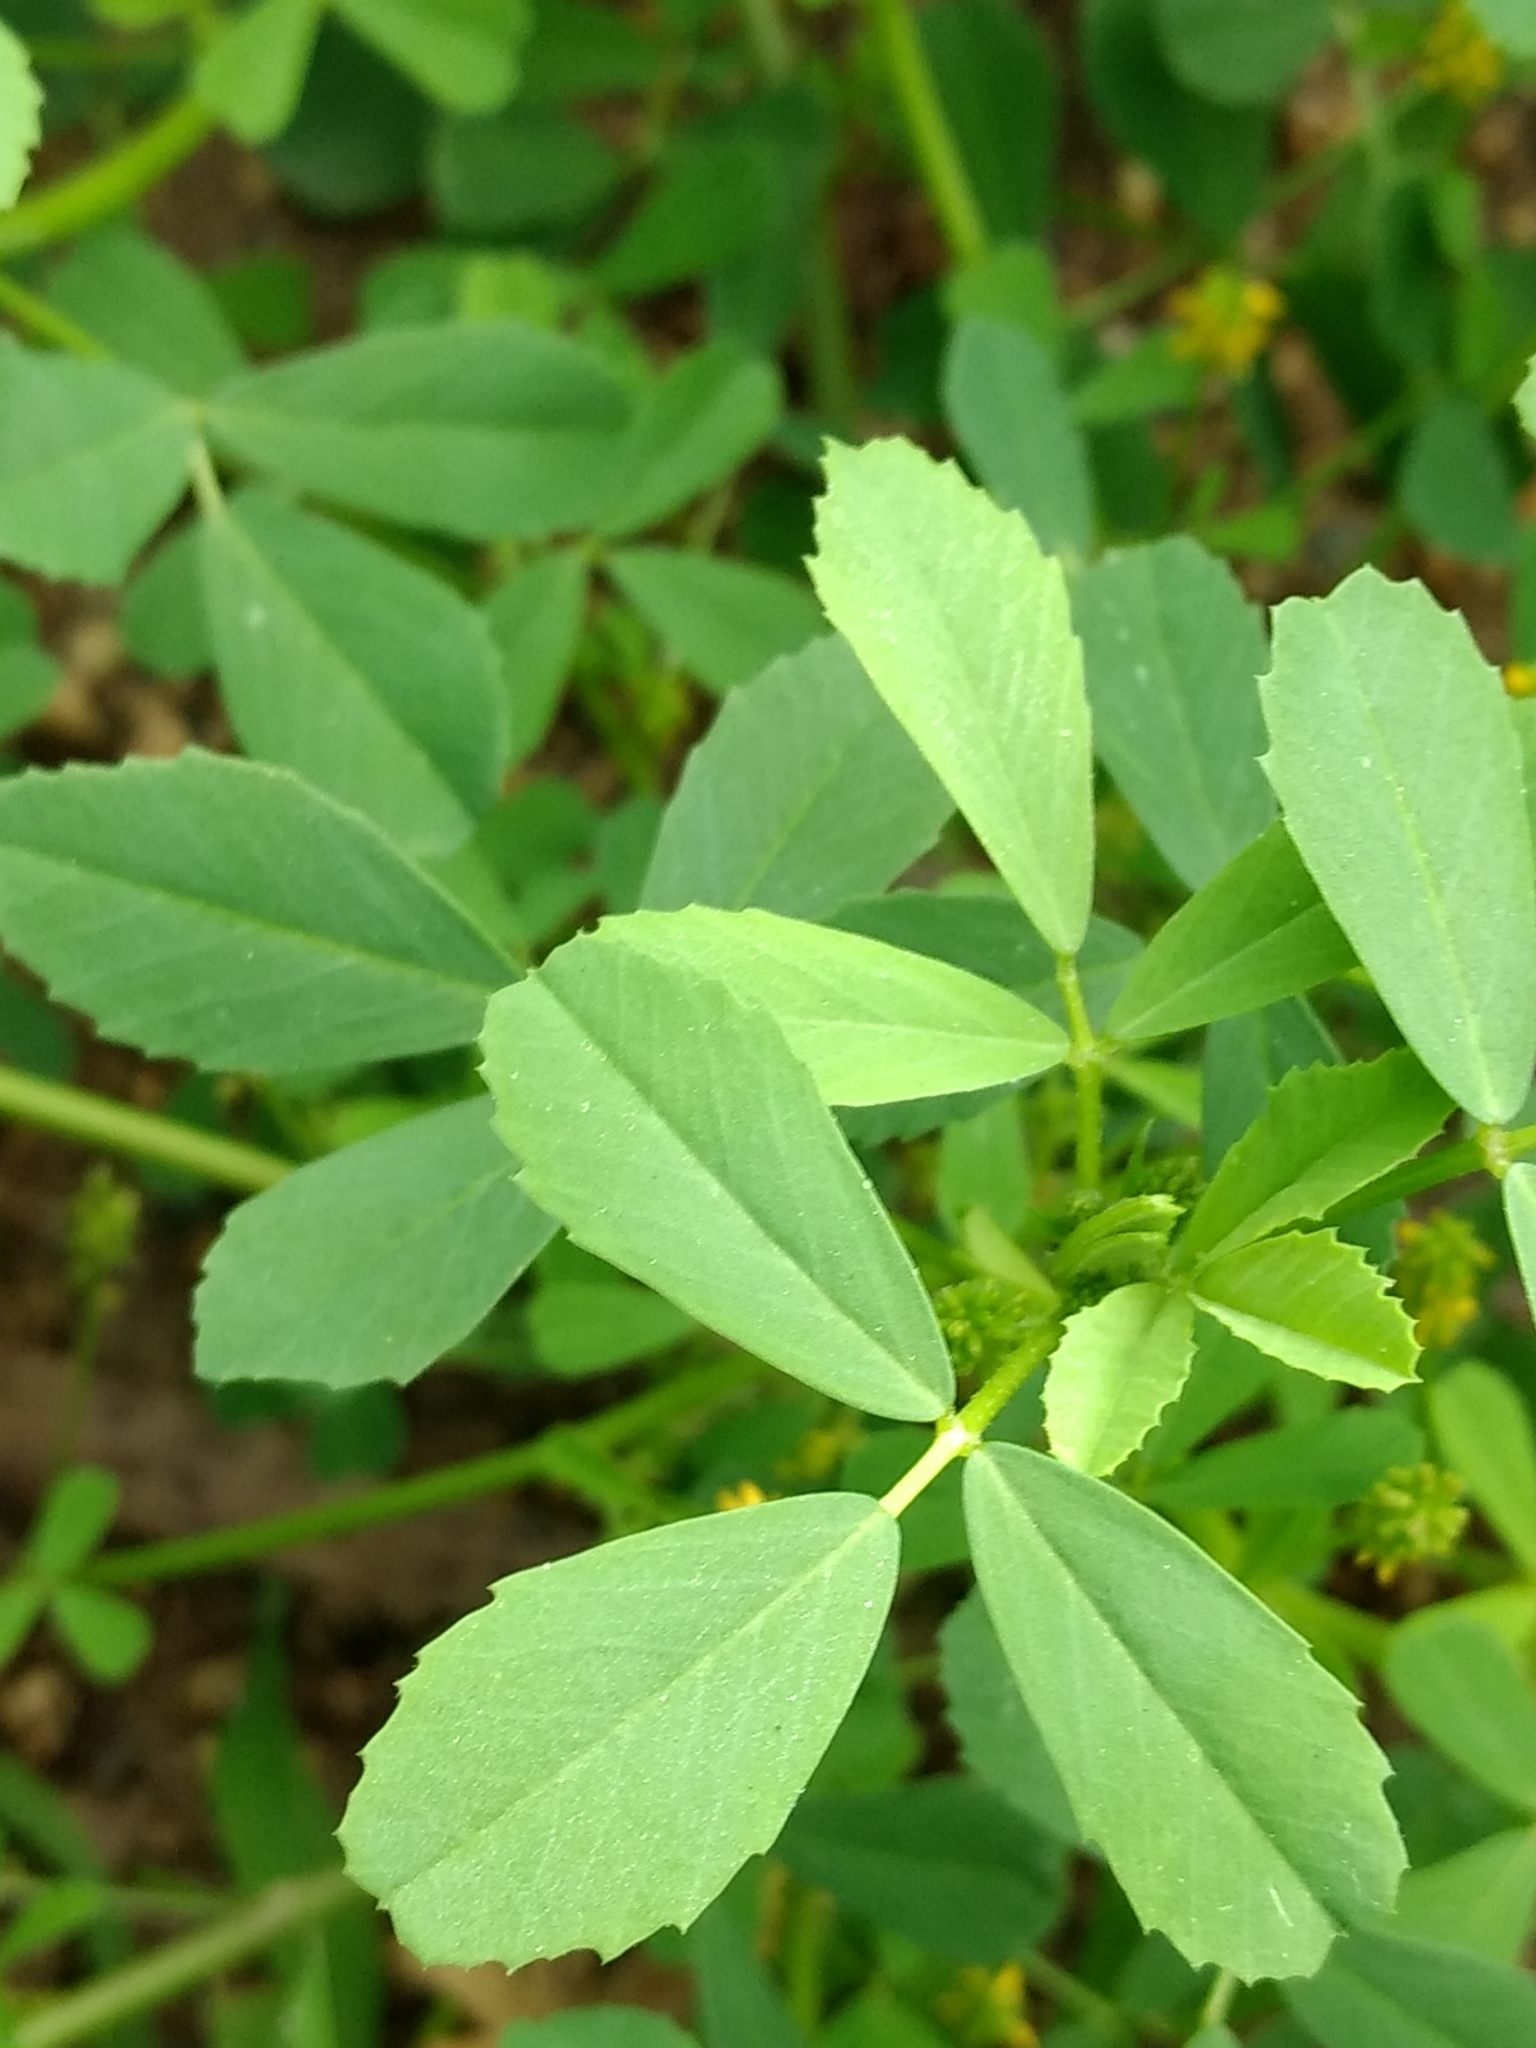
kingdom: Plantae
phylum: Tracheophyta
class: Magnoliopsida
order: Fabales
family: Fabaceae
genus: Melilotus
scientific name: Melilotus indicus
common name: Small melilot
